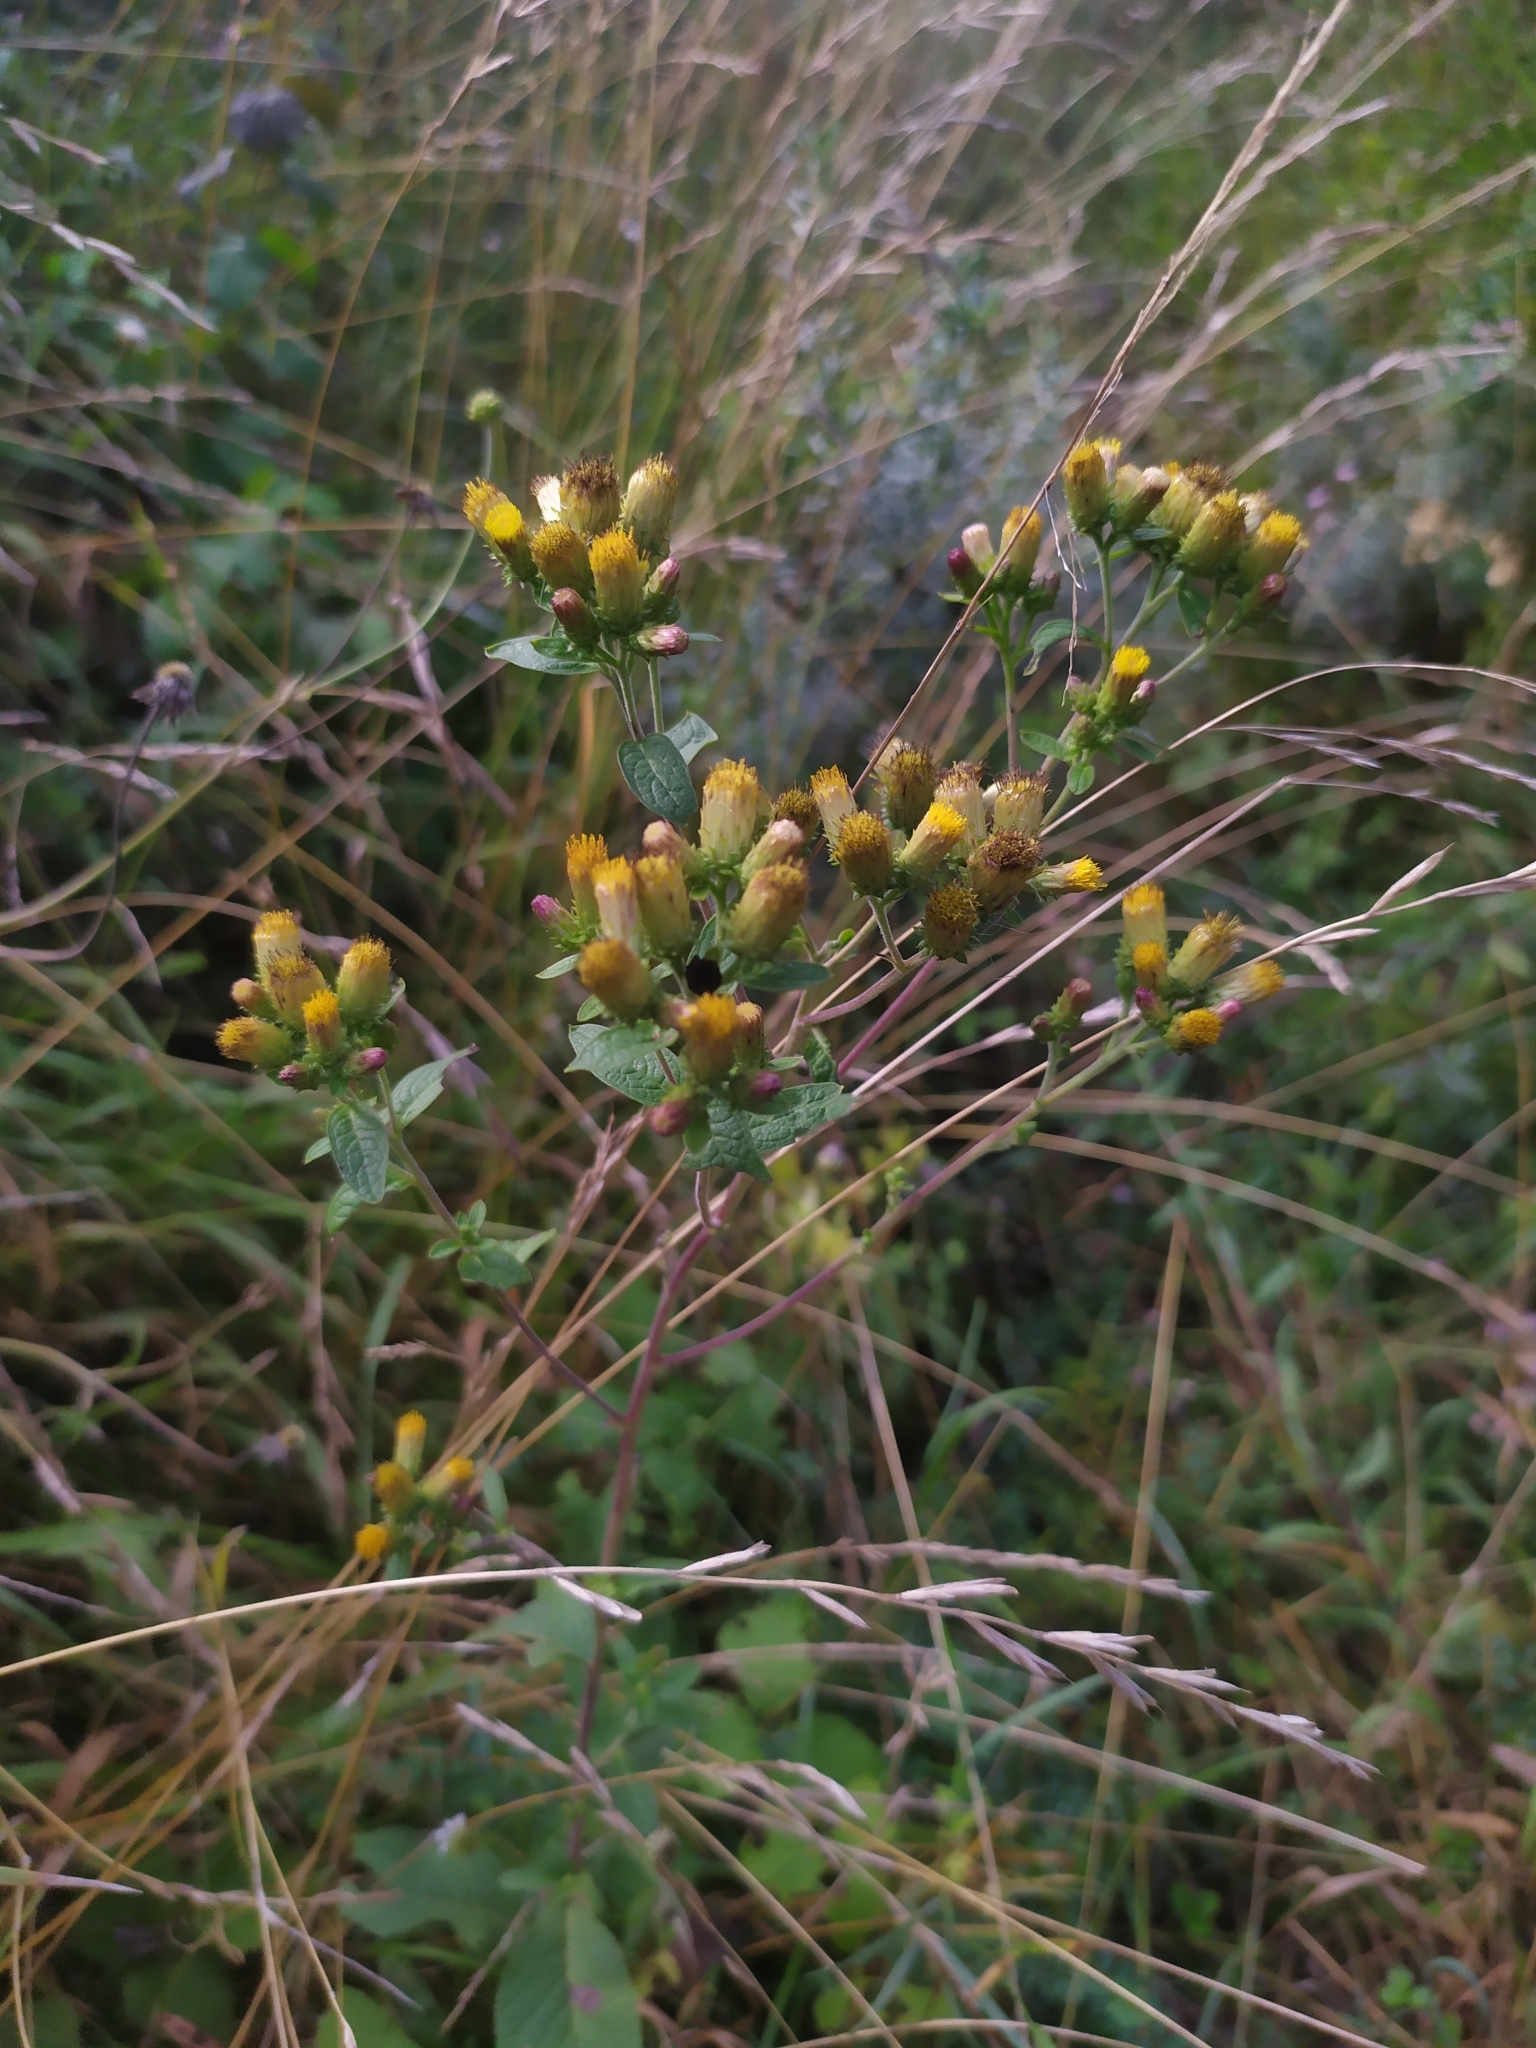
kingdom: Plantae
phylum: Tracheophyta
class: Magnoliopsida
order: Asterales
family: Asteraceae
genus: Pentanema
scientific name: Pentanema squarrosum
